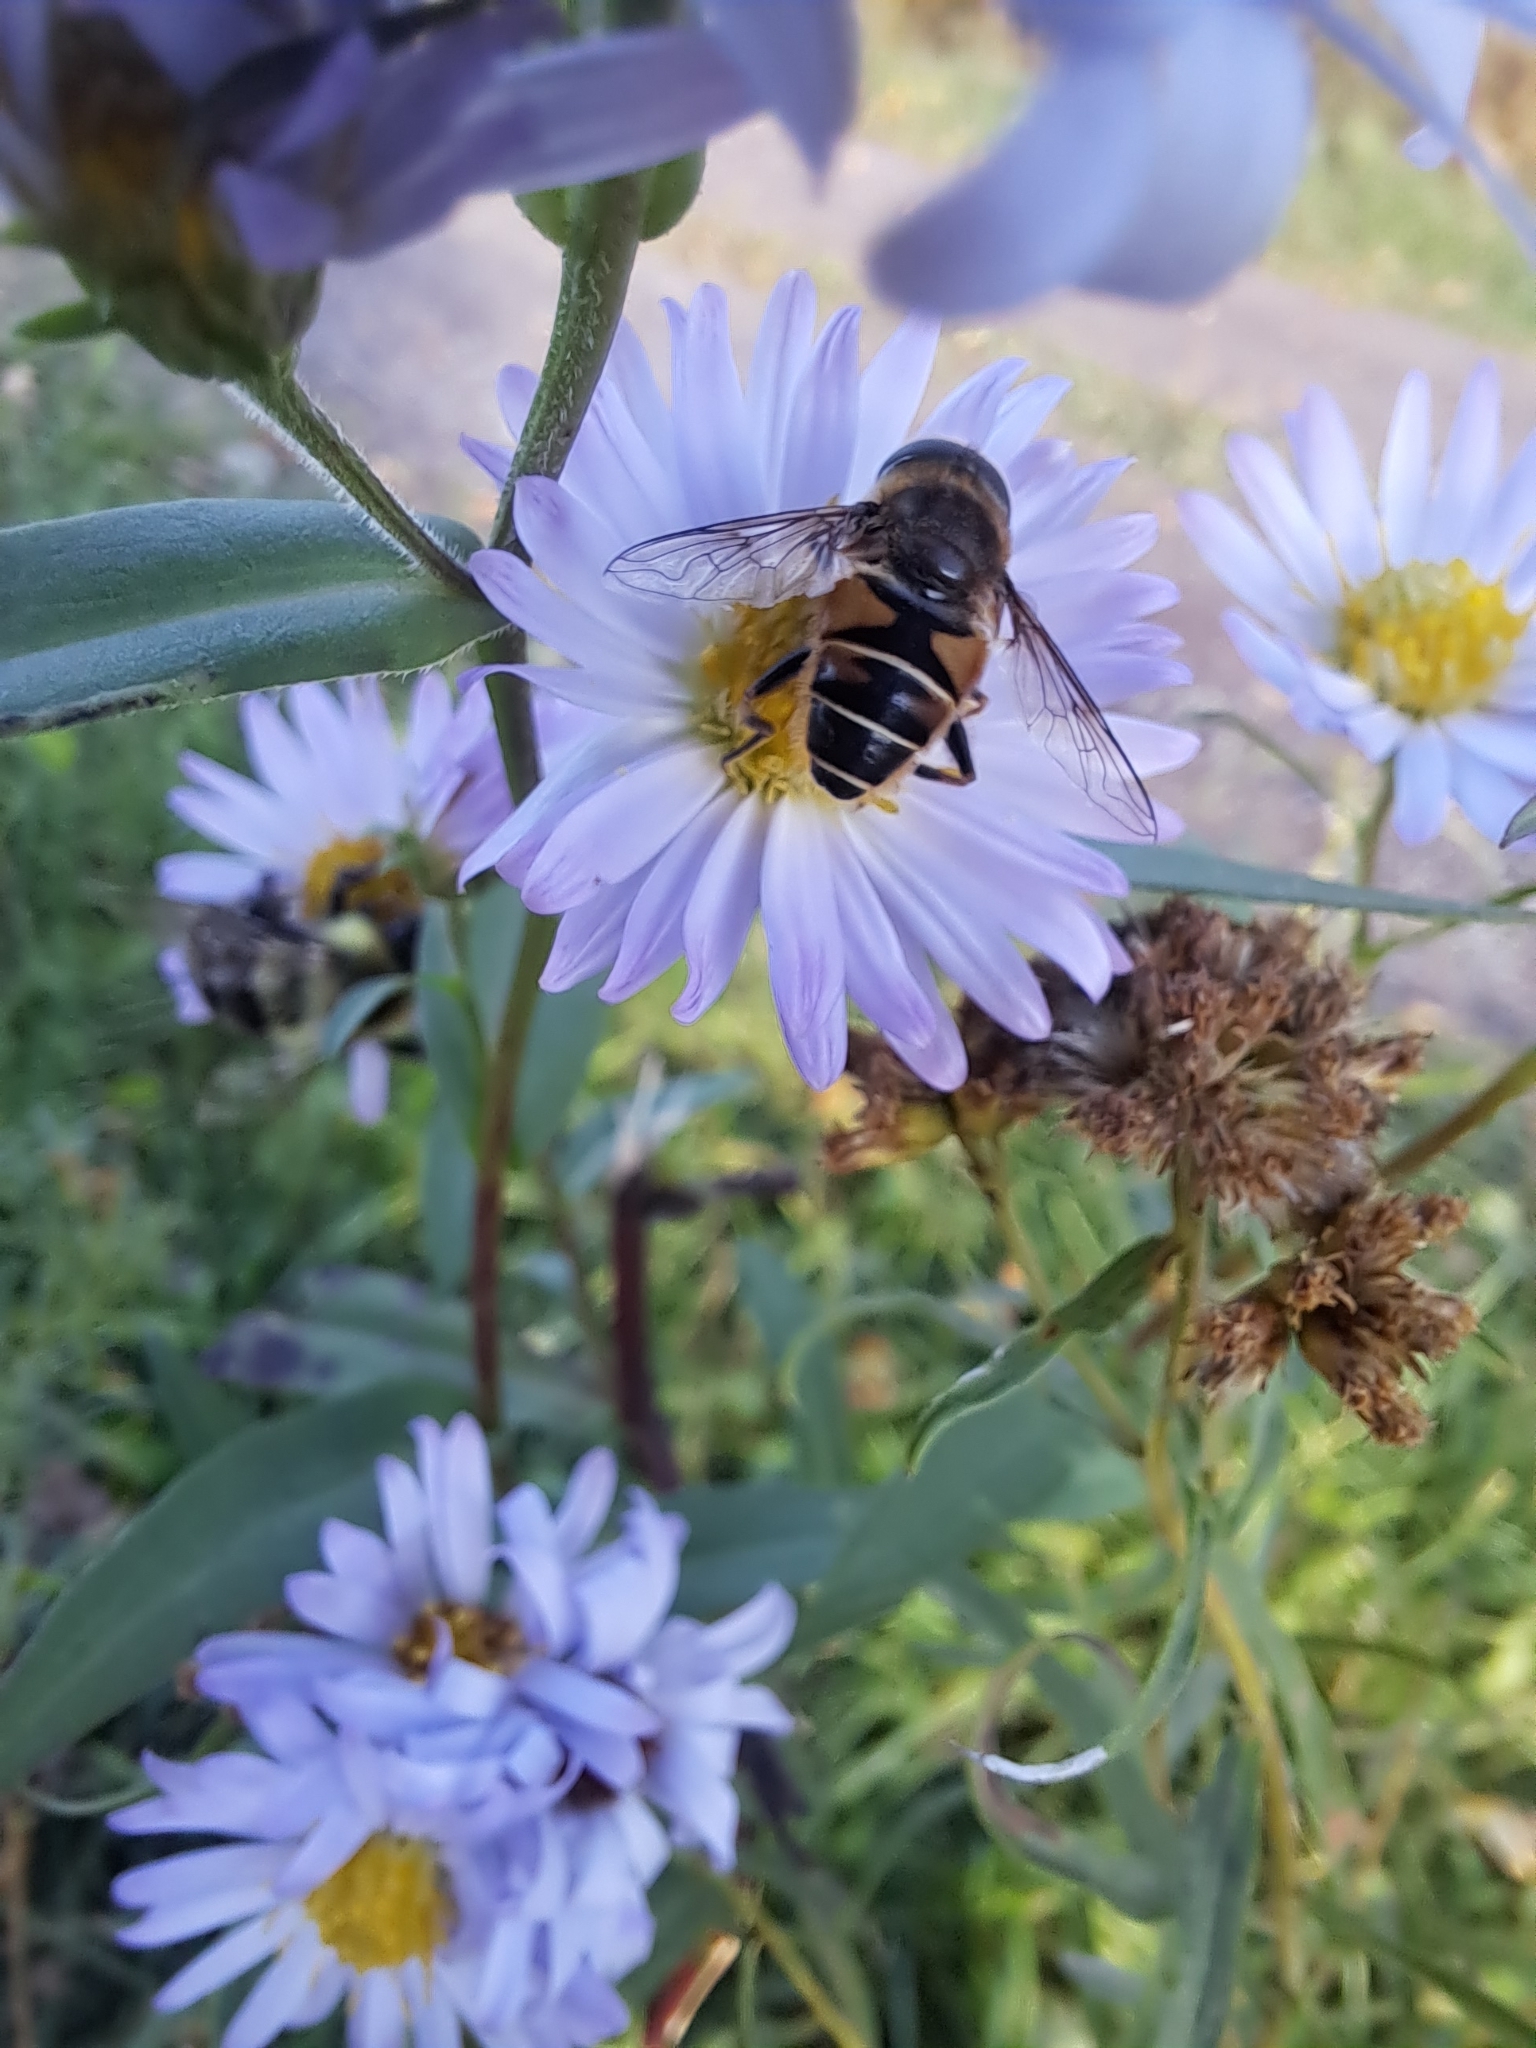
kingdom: Animalia
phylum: Arthropoda
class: Insecta
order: Diptera
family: Syrphidae
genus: Eristalis
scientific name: Eristalis nemorum
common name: Orange-spined drone fly
